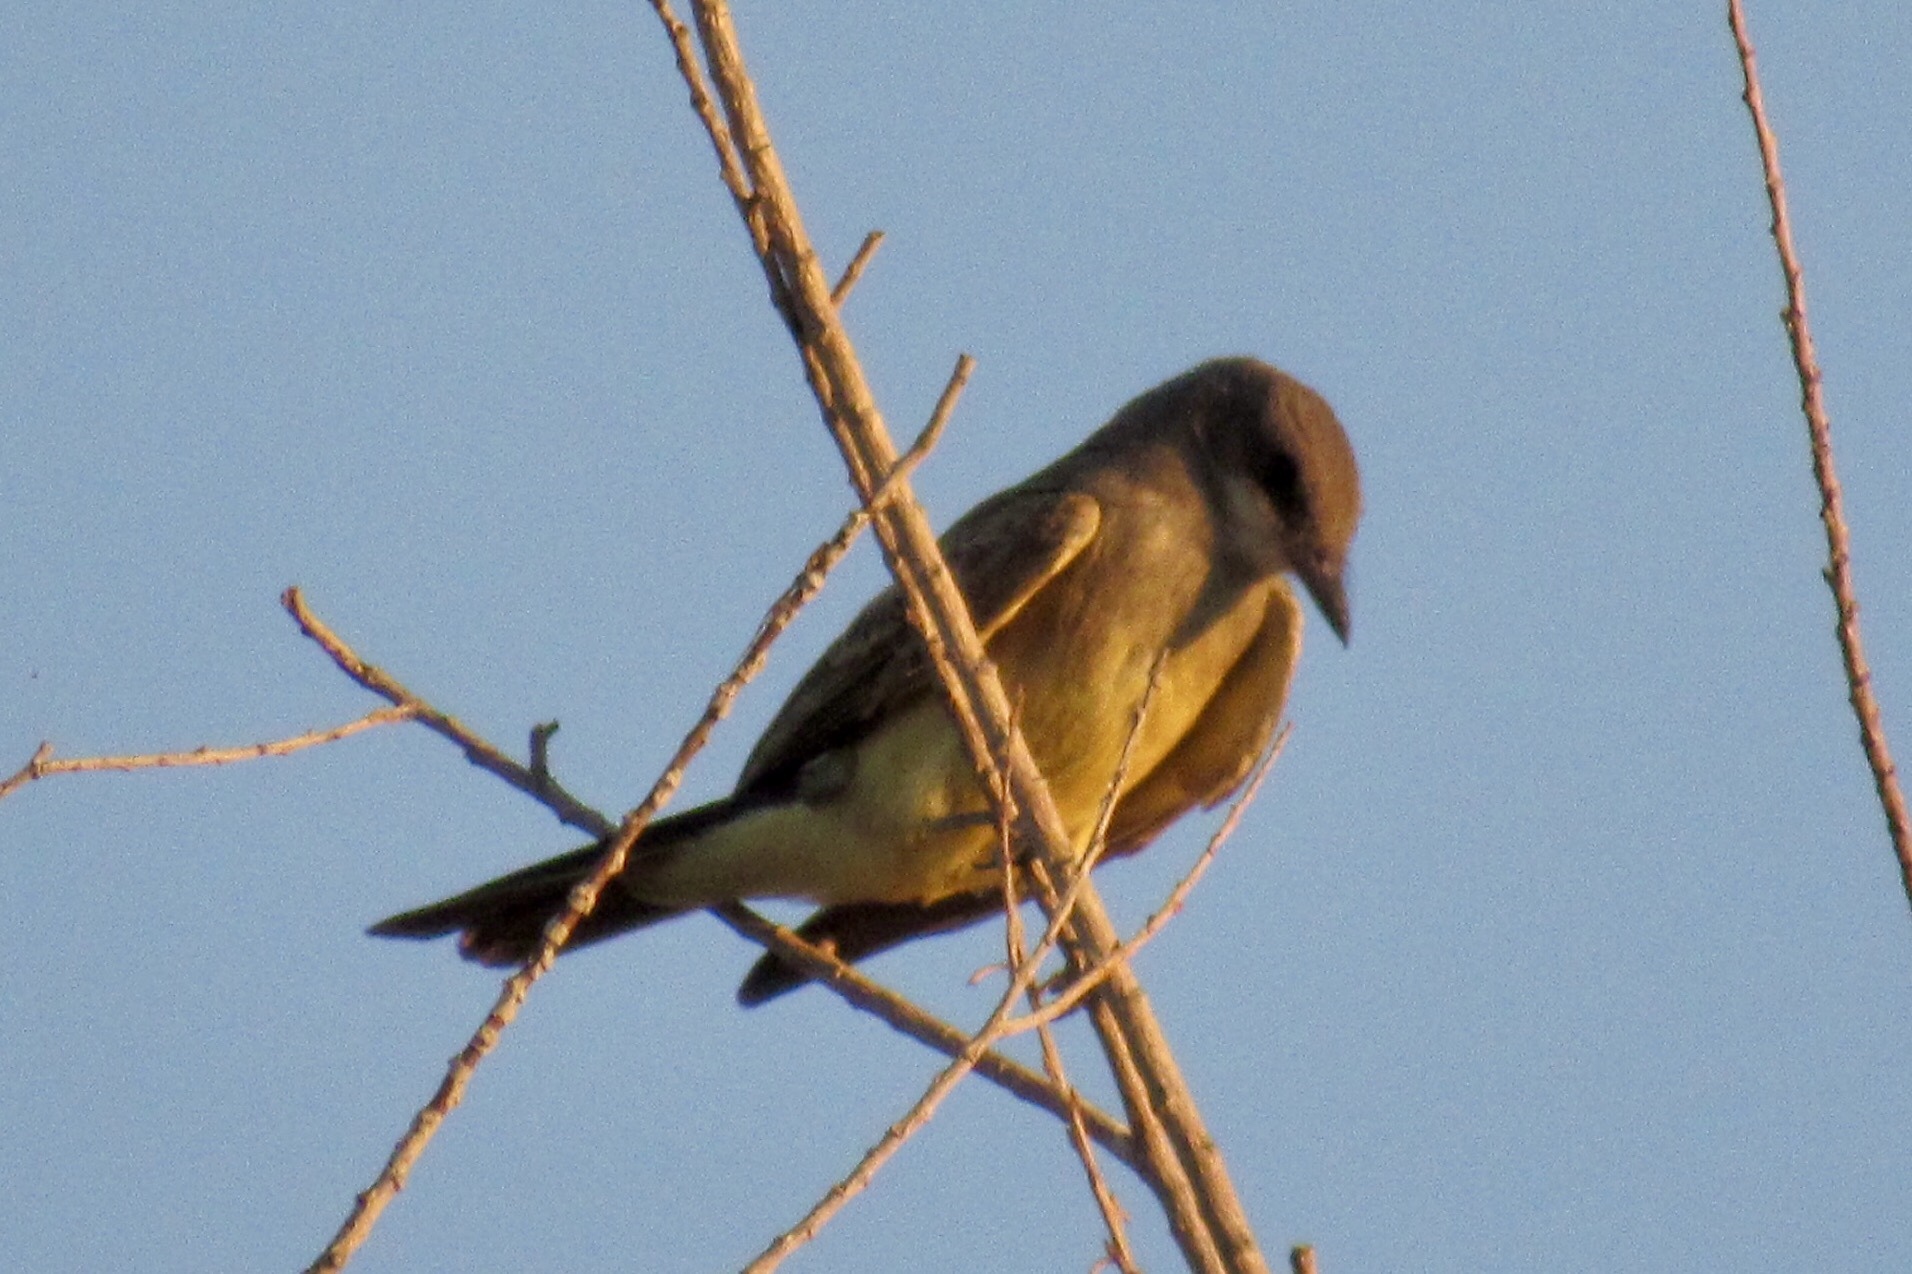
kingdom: Animalia
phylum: Chordata
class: Aves
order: Passeriformes
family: Tyrannidae
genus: Tyrannus
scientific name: Tyrannus vociferans
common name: Cassin's kingbird
